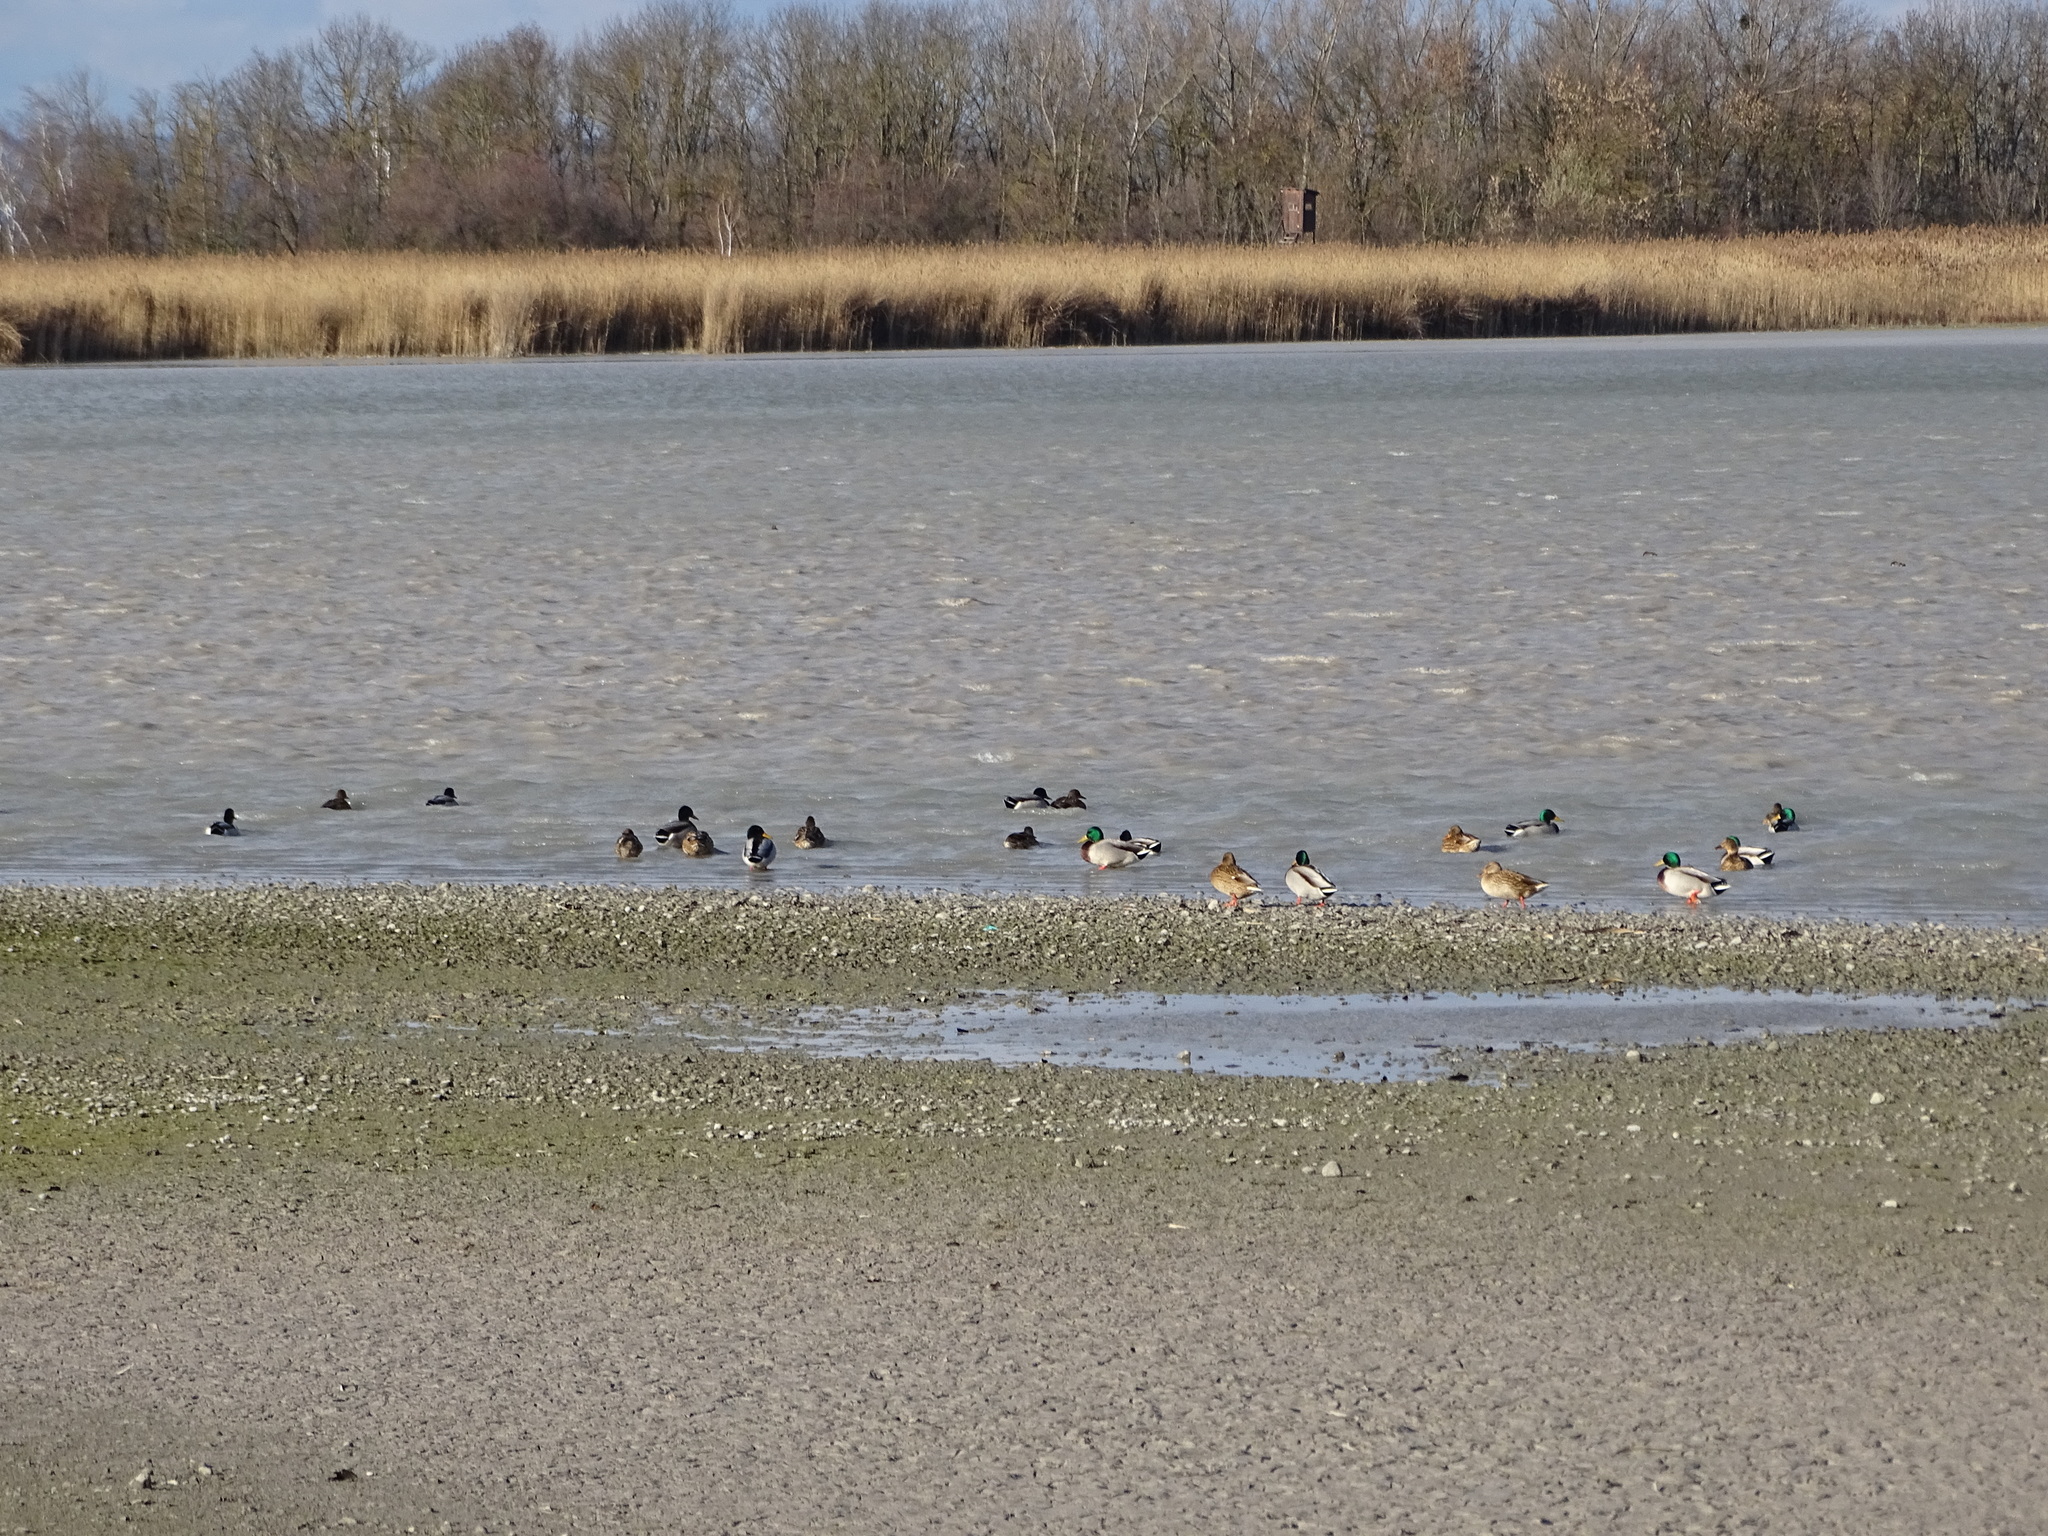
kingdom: Animalia
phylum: Chordata
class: Aves
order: Anseriformes
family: Anatidae
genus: Anas
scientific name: Anas platyrhynchos
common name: Mallard
